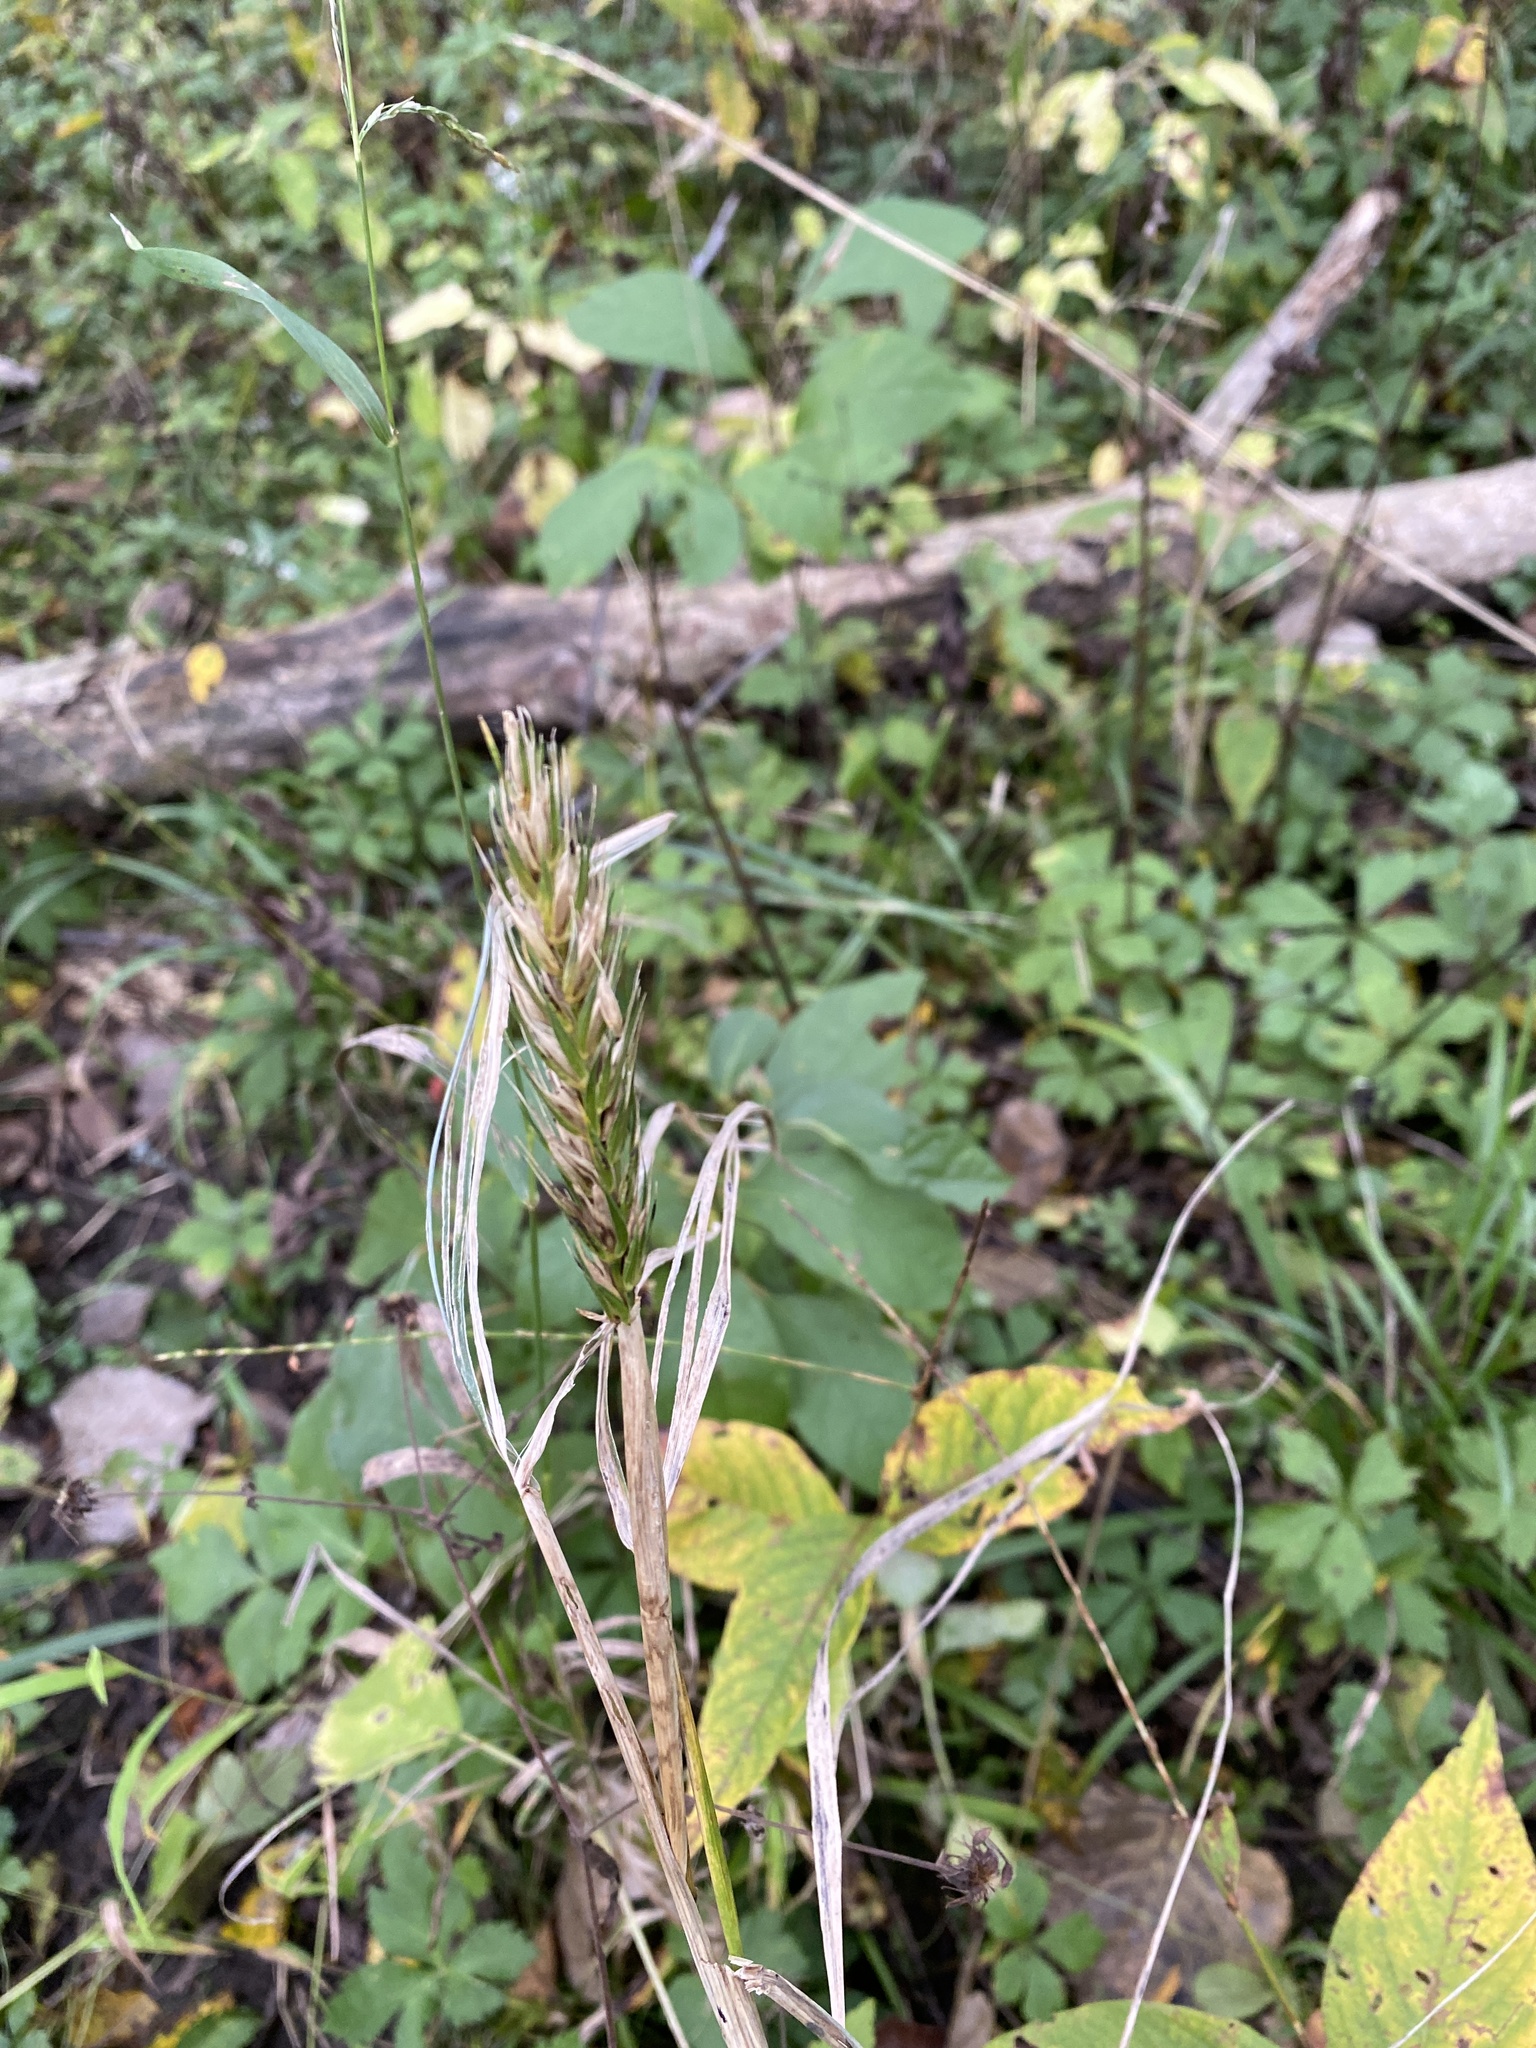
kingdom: Plantae
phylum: Tracheophyta
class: Liliopsida
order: Poales
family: Poaceae
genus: Elymus
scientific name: Elymus virginicus
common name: Common eastern wildrye
